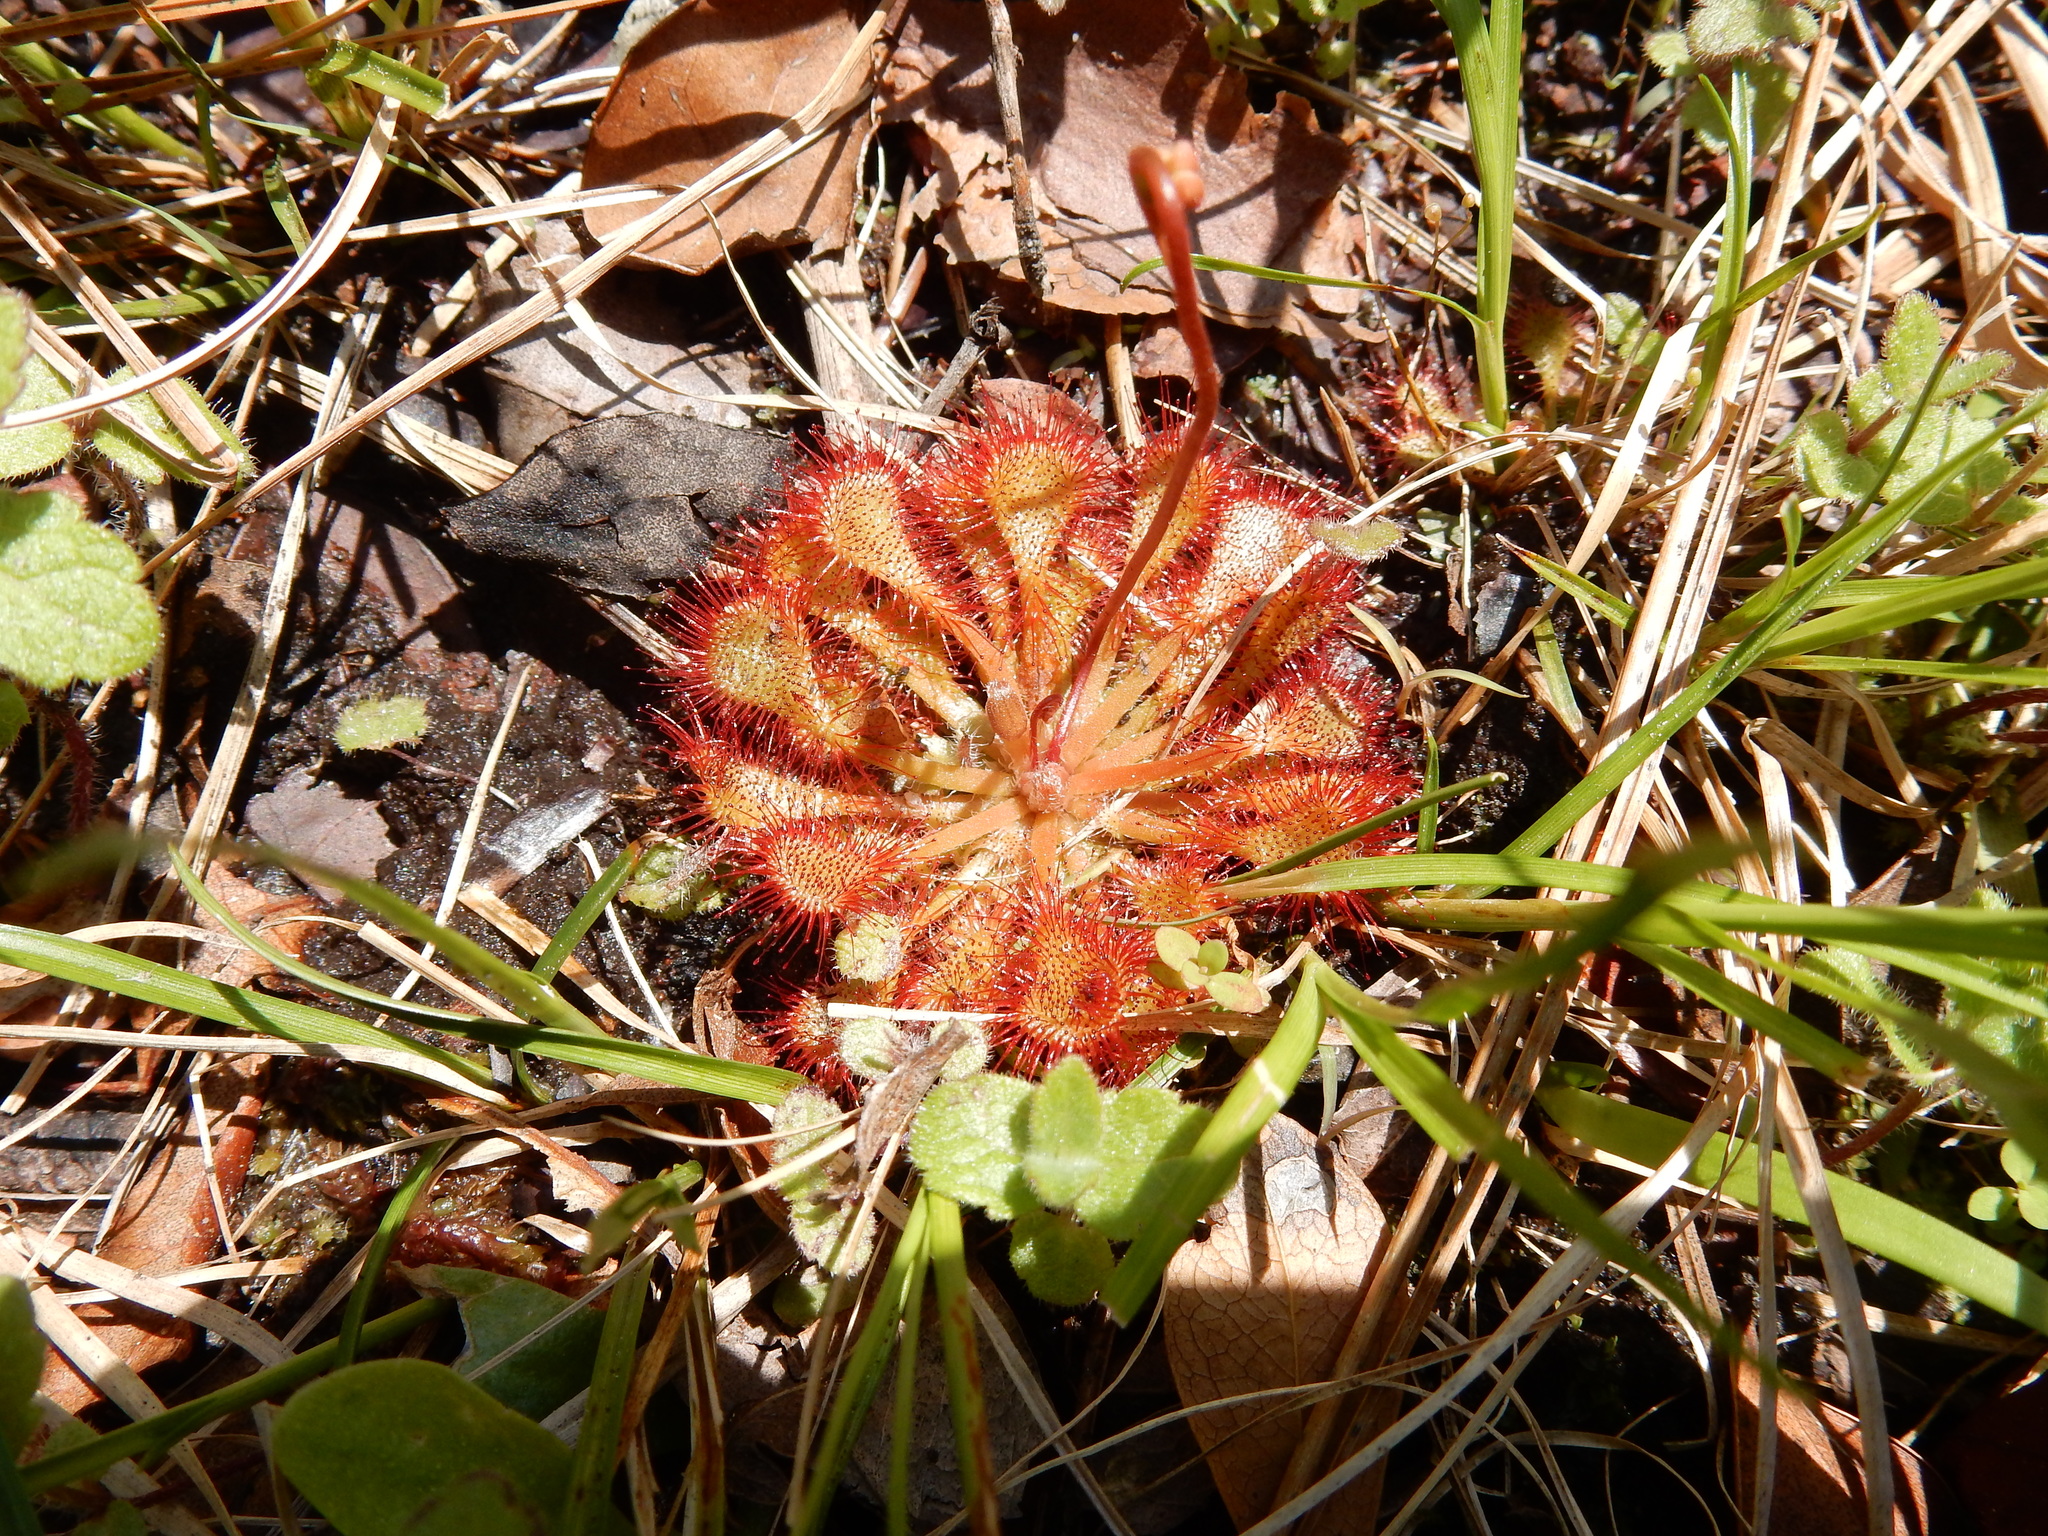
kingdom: Plantae
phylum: Tracheophyta
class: Magnoliopsida
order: Caryophyllales
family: Droseraceae
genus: Drosera
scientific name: Drosera capillaris
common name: Pink sundew
